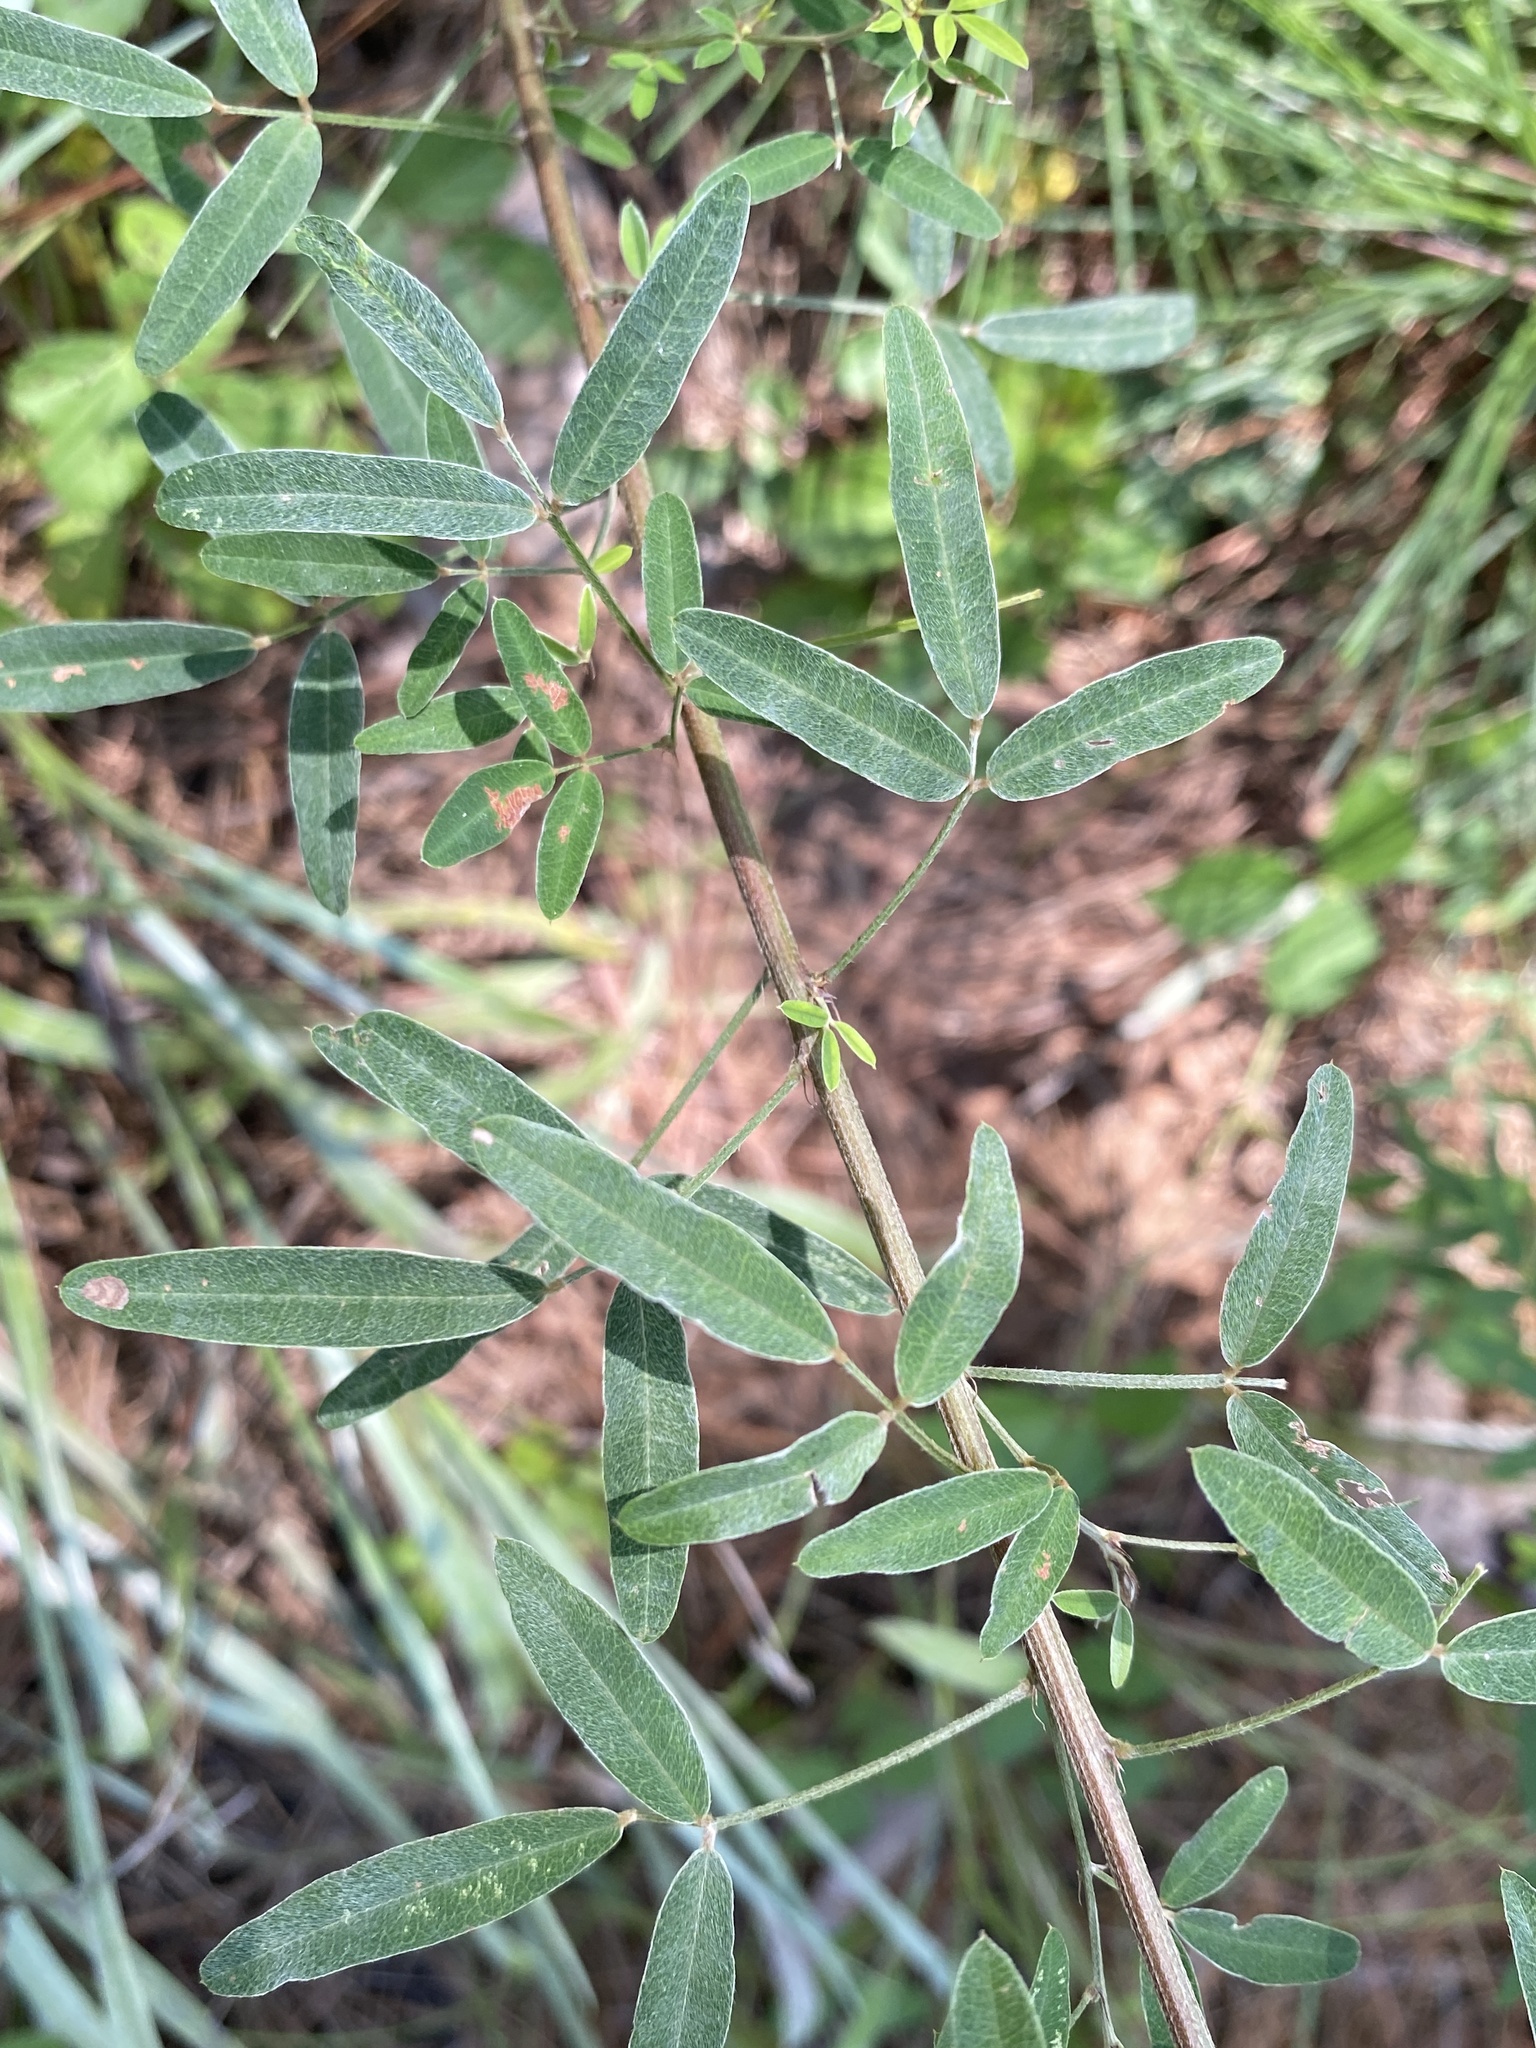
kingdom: Plantae
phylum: Tracheophyta
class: Magnoliopsida
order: Fabales
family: Fabaceae
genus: Lespedeza
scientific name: Lespedeza virginica
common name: Slender bush-clover
